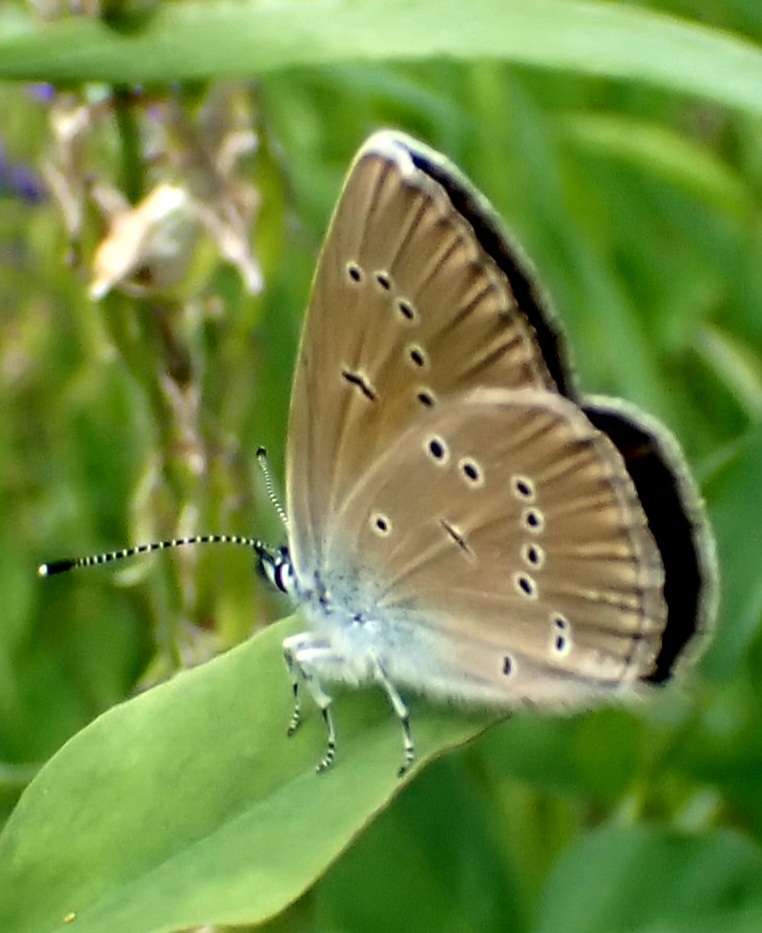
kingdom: Animalia
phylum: Arthropoda
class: Insecta
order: Lepidoptera
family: Lycaenidae
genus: Cyaniris
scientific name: Cyaniris semiargus
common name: Mazarine blue
